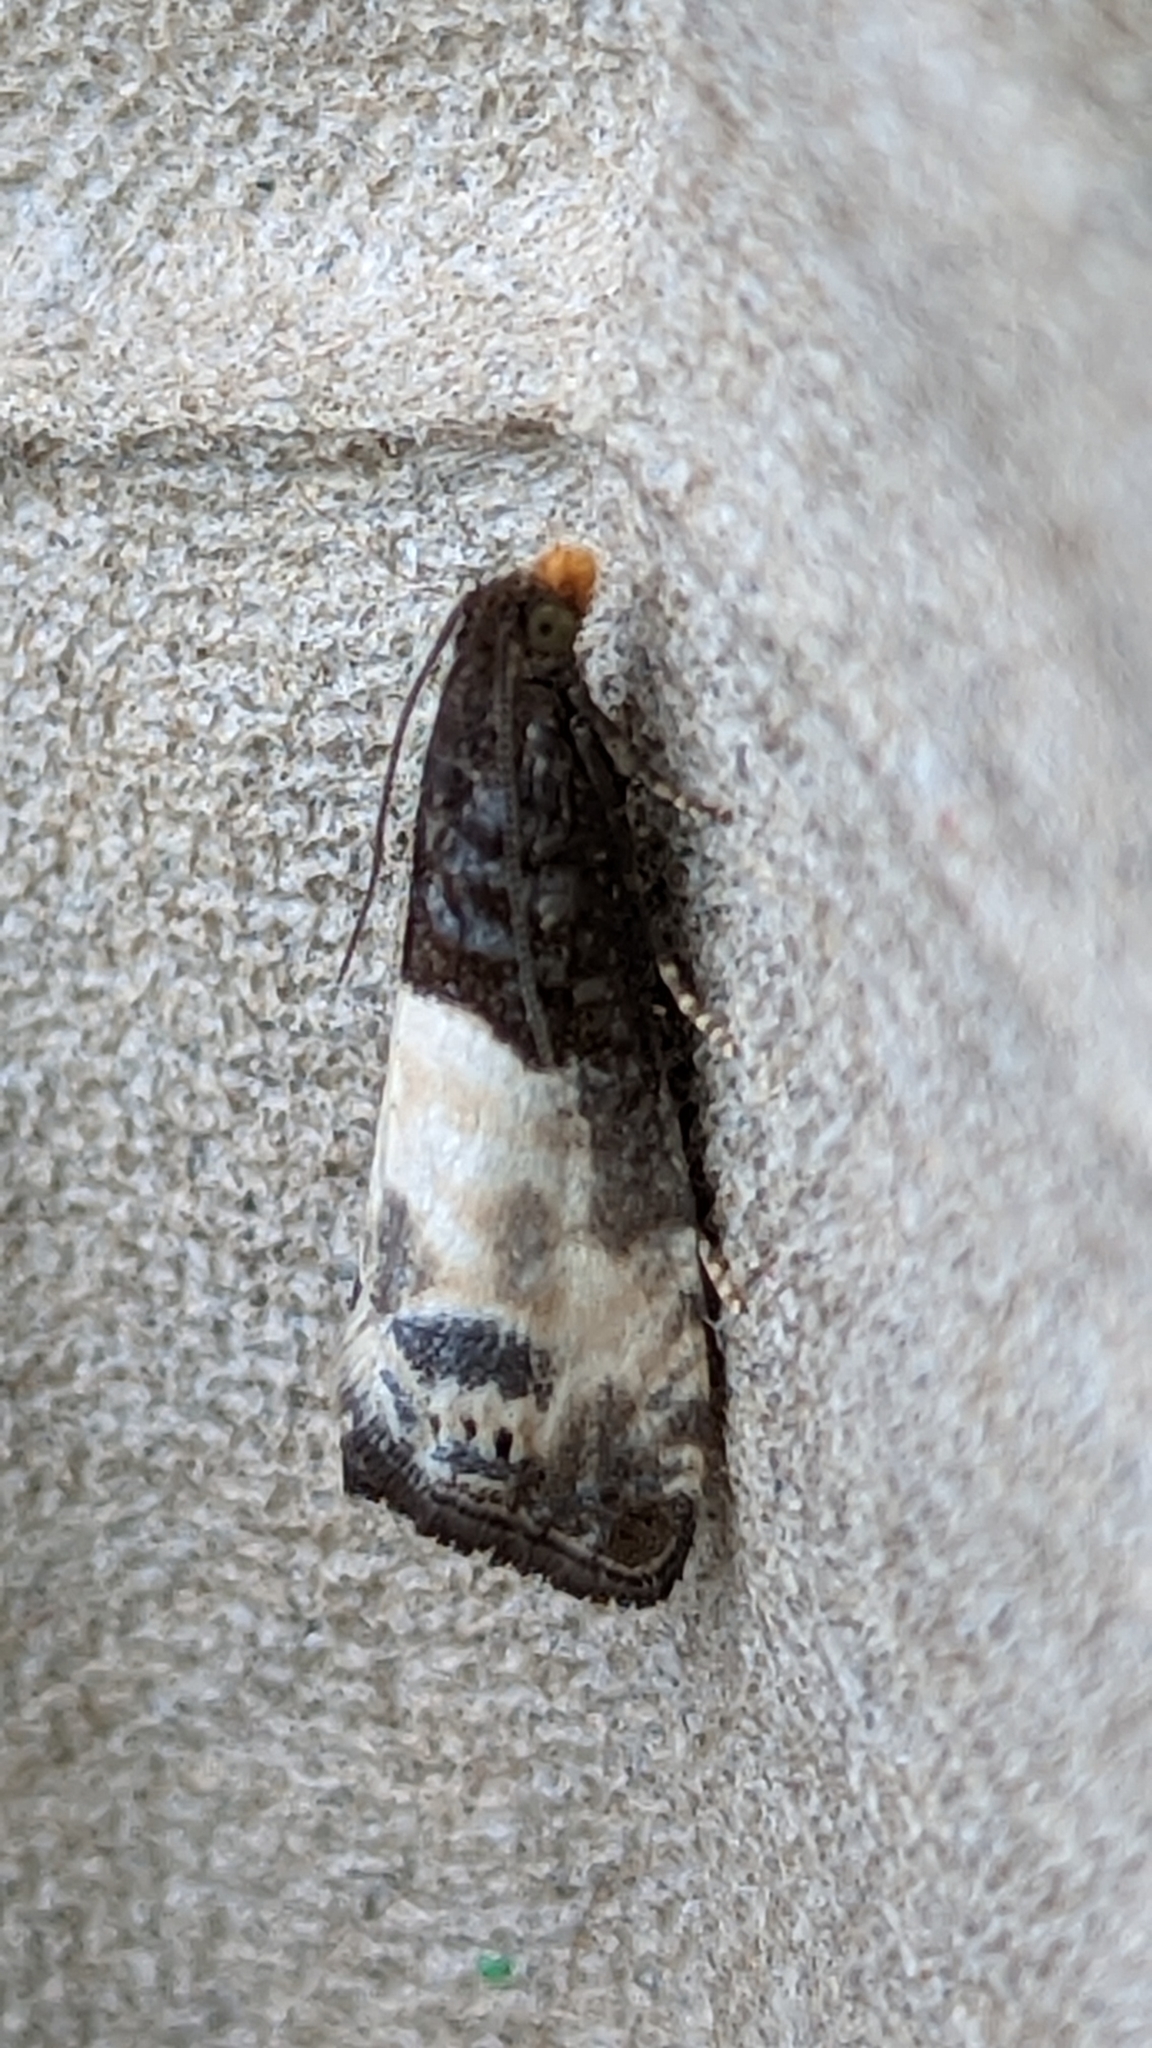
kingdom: Animalia
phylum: Arthropoda
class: Insecta
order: Lepidoptera
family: Tortricidae
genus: Notocelia
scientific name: Notocelia cynosbatella
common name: Yellow-faced bell moth
